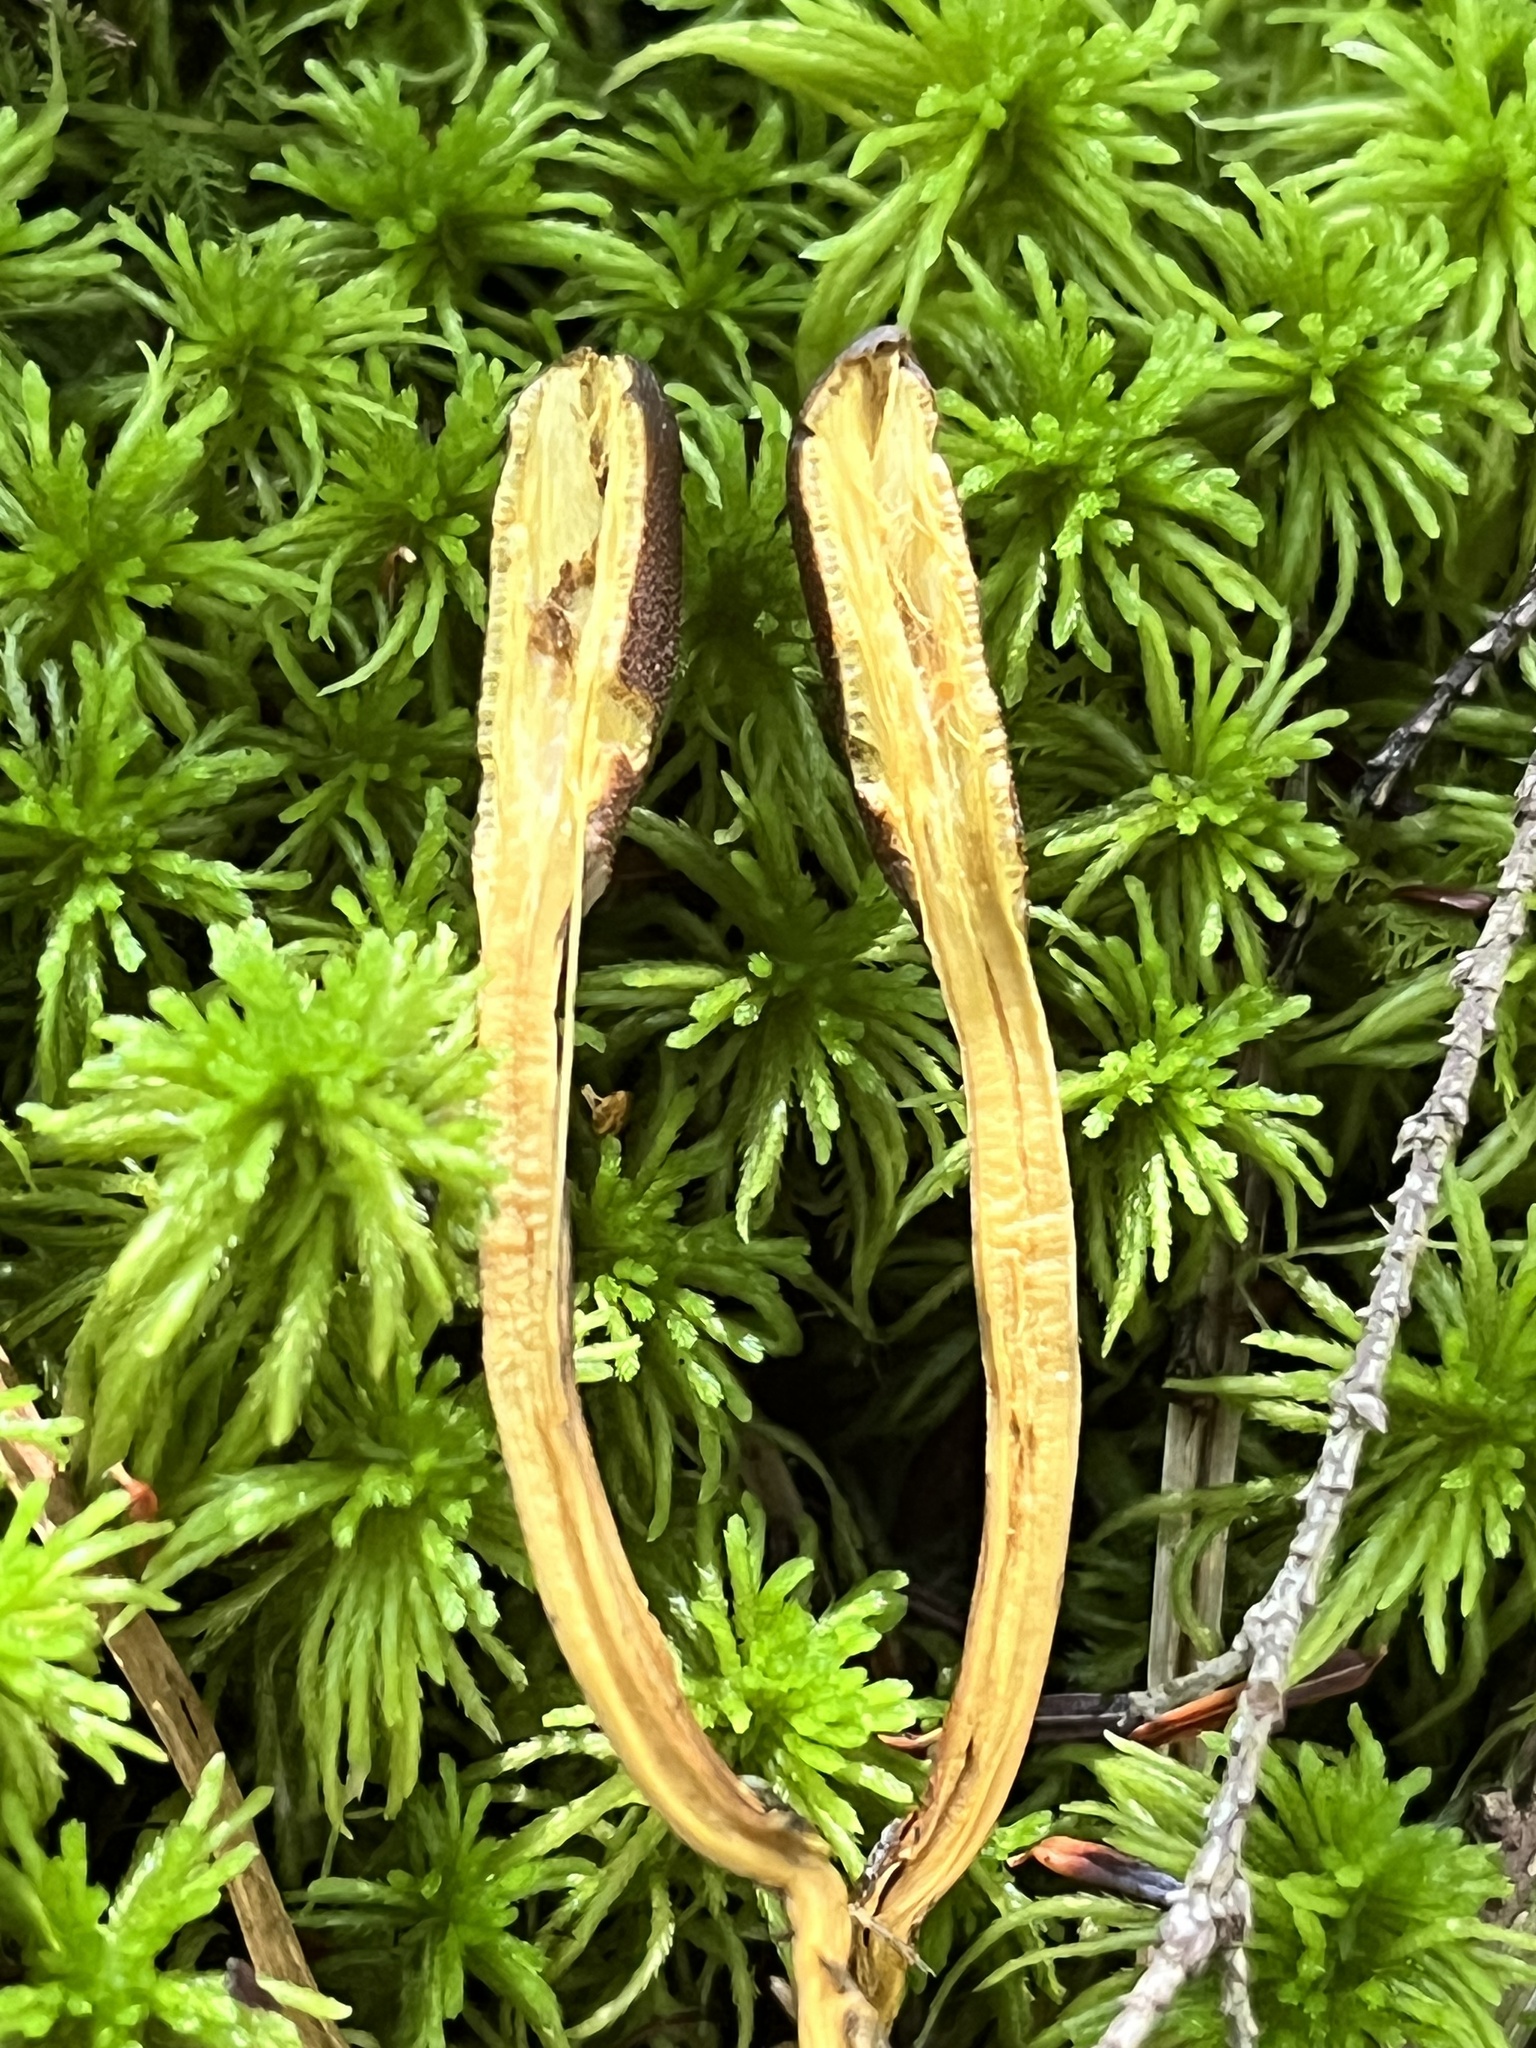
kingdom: Fungi
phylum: Ascomycota
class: Sordariomycetes
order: Hypocreales
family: Ophiocordycipitaceae
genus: Tolypocladium
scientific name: Tolypocladium ophioglossoides
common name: Snaketongue truffleclub
